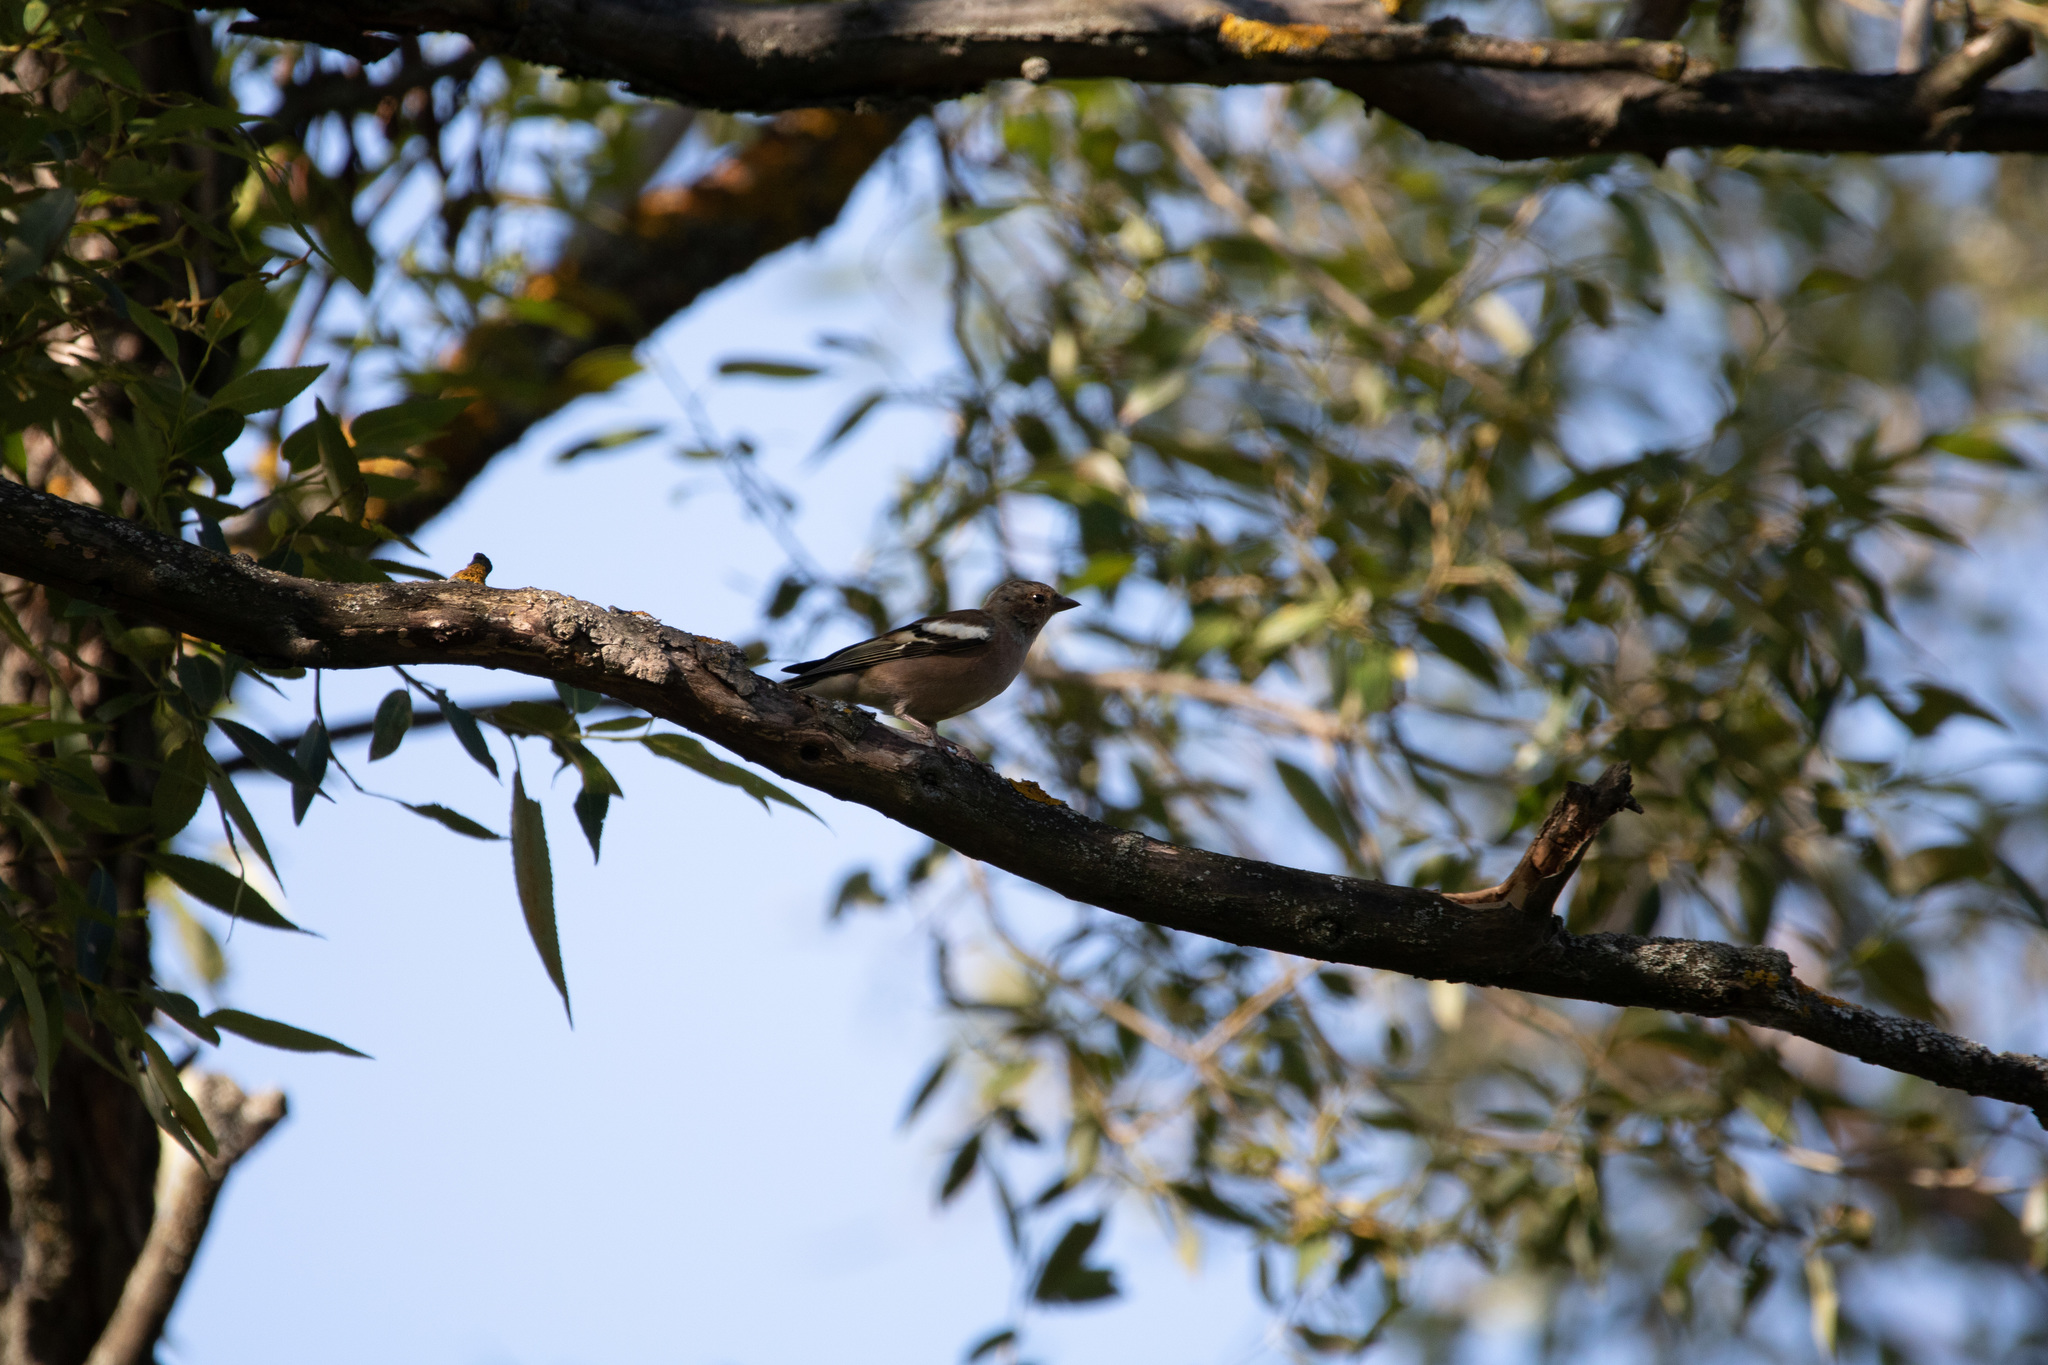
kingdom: Animalia
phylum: Chordata
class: Aves
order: Passeriformes
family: Fringillidae
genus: Fringilla
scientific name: Fringilla coelebs
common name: Common chaffinch
